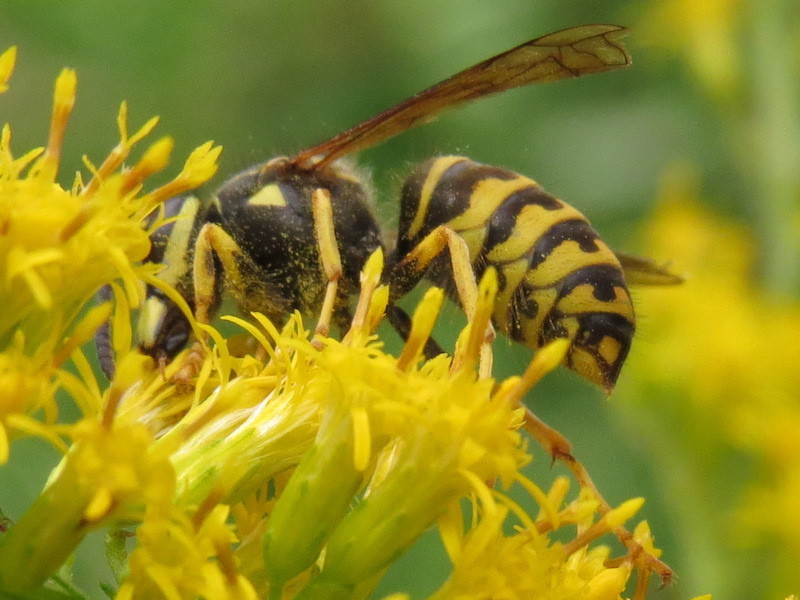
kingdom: Animalia
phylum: Arthropoda
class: Insecta
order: Hymenoptera
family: Vespidae
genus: Dolichovespula
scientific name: Dolichovespula arenaria
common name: Aerial yellowjacket
